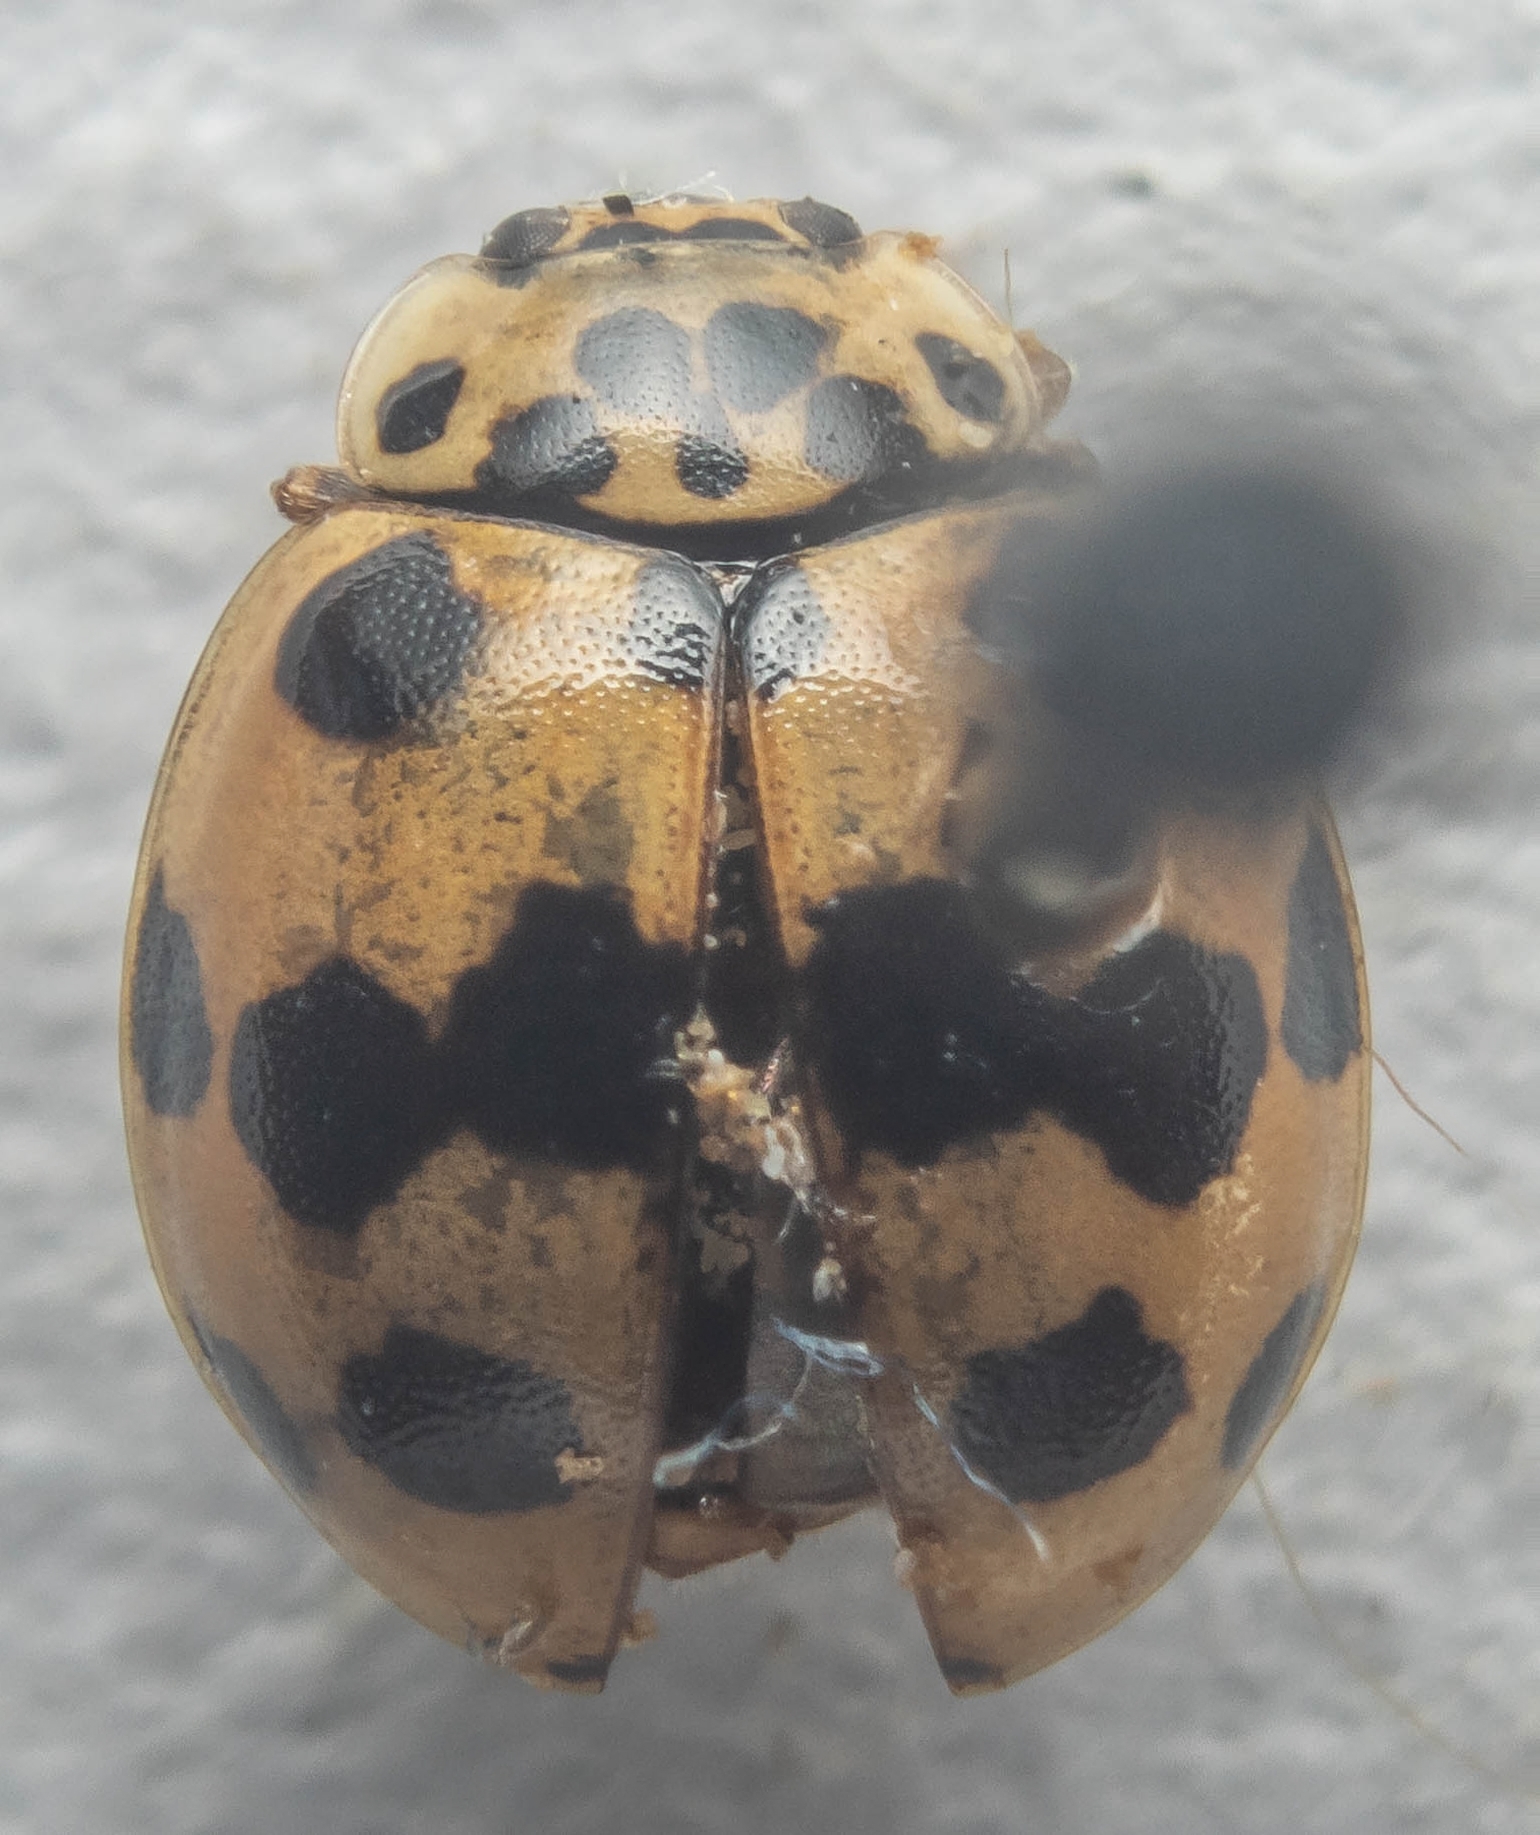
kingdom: Animalia
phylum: Arthropoda
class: Insecta
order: Coleoptera
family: Coccinellidae
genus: Harmonia
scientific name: Harmonia quadripunctata
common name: Cream-streaked ladybird
